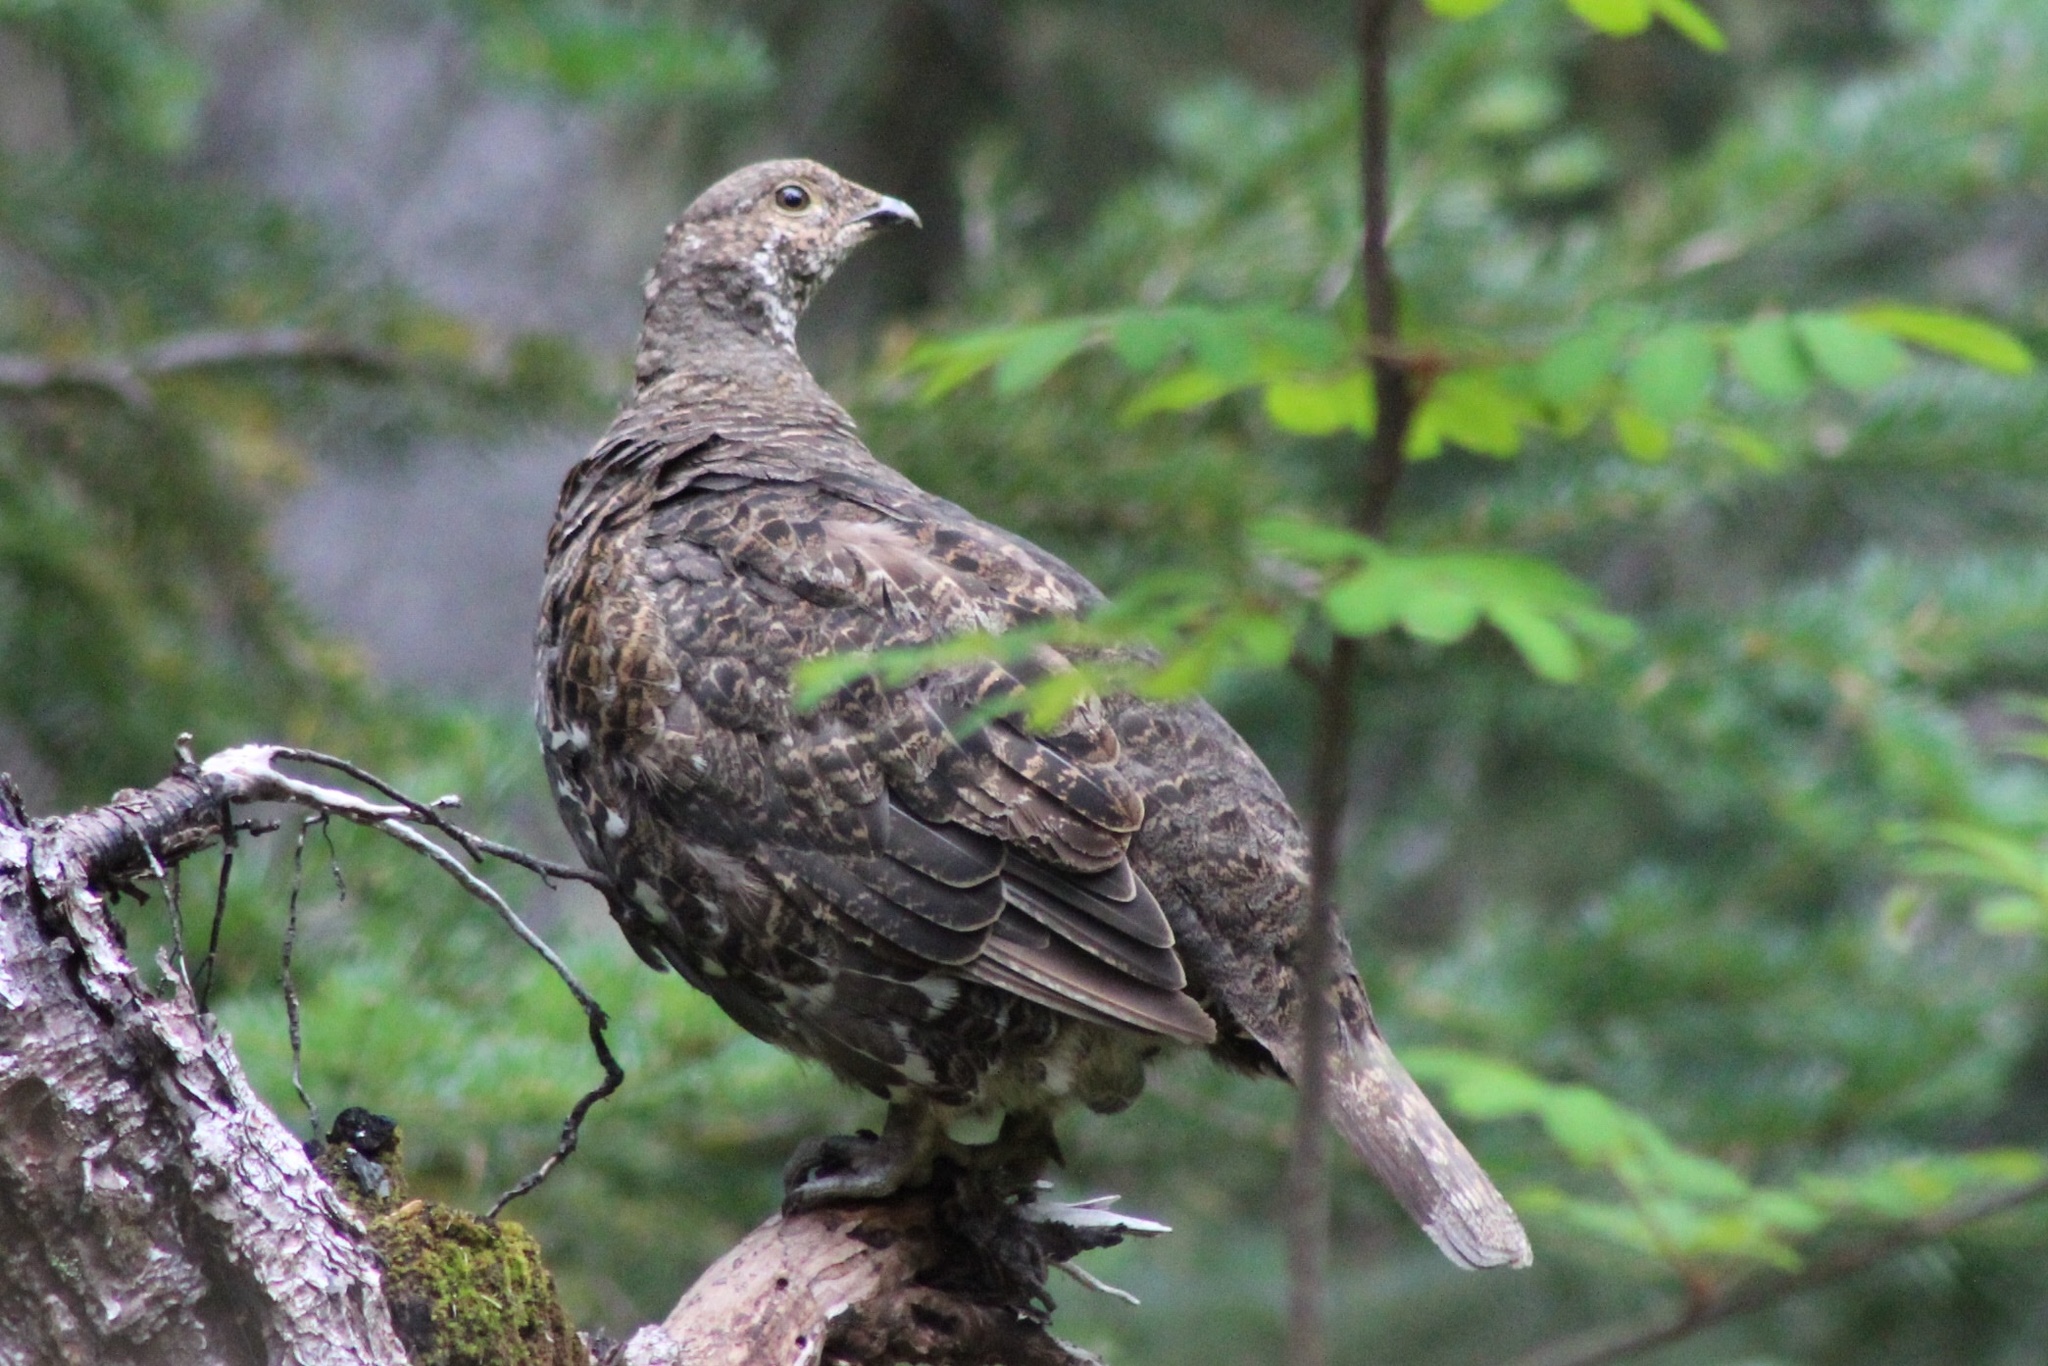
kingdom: Animalia
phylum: Chordata
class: Aves
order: Galliformes
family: Phasianidae
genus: Dendragapus
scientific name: Dendragapus fuliginosus
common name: Sooty grouse
